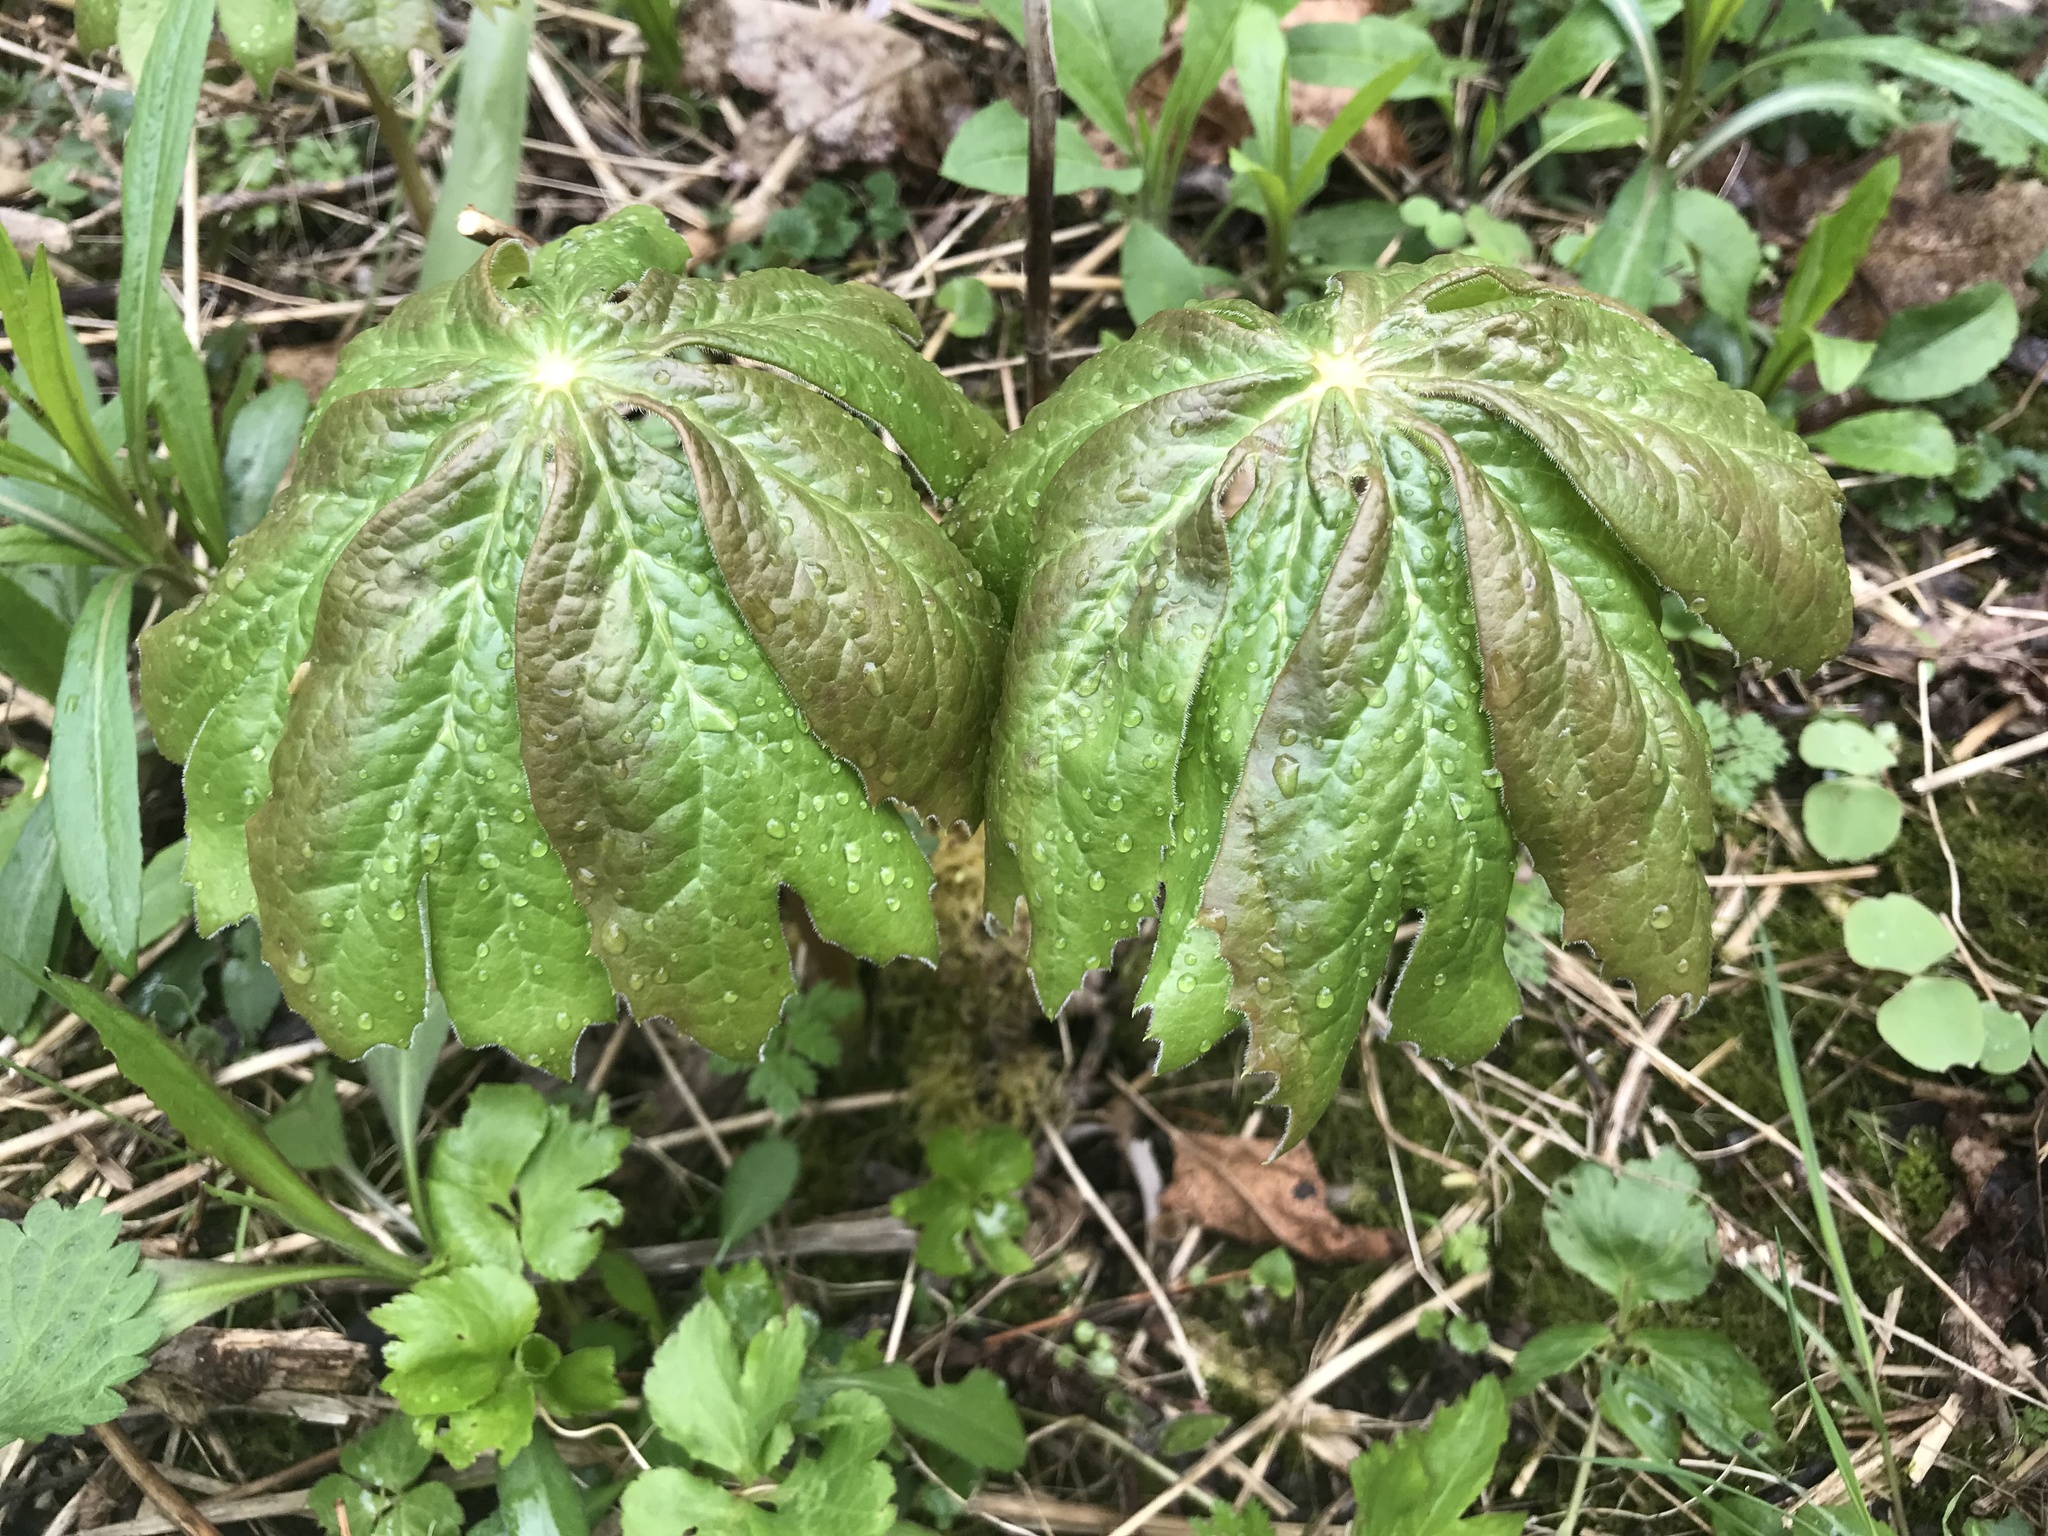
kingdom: Plantae
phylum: Tracheophyta
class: Magnoliopsida
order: Ranunculales
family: Berberidaceae
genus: Podophyllum
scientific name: Podophyllum peltatum
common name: Wild mandrake
